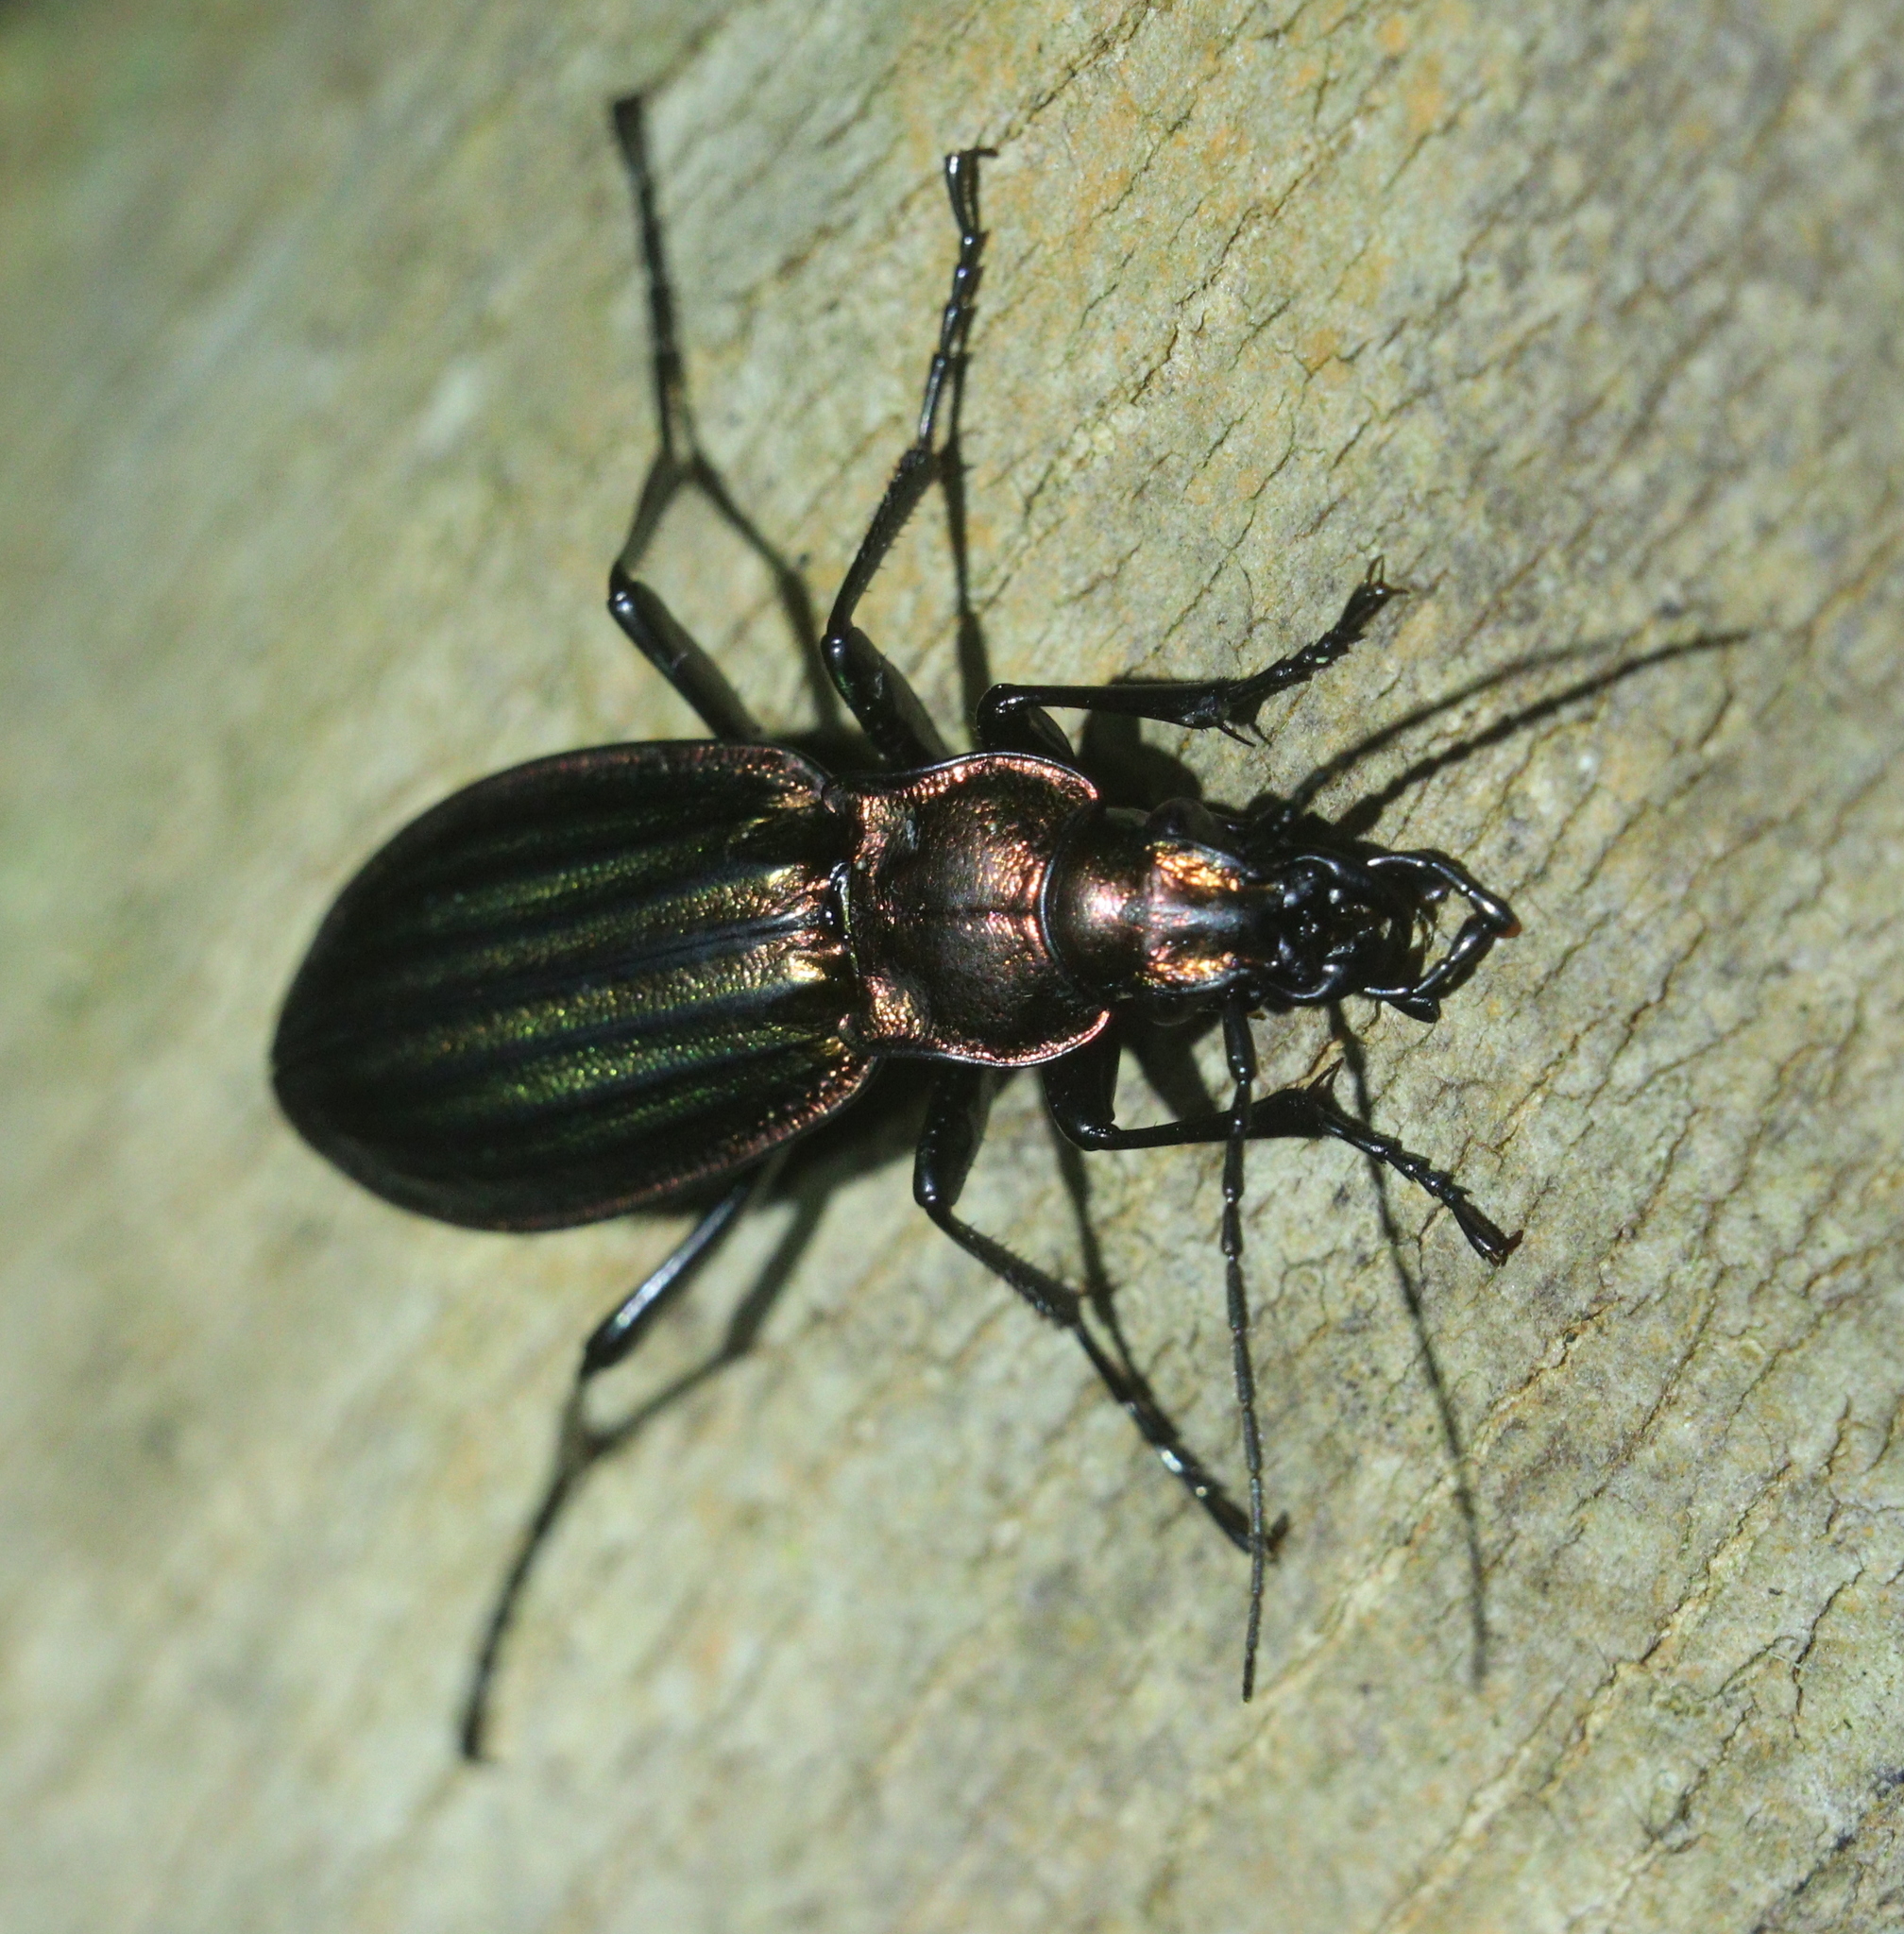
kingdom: Animalia
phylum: Arthropoda
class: Insecta
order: Coleoptera
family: Carabidae
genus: Carabus
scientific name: Carabus strasseri
